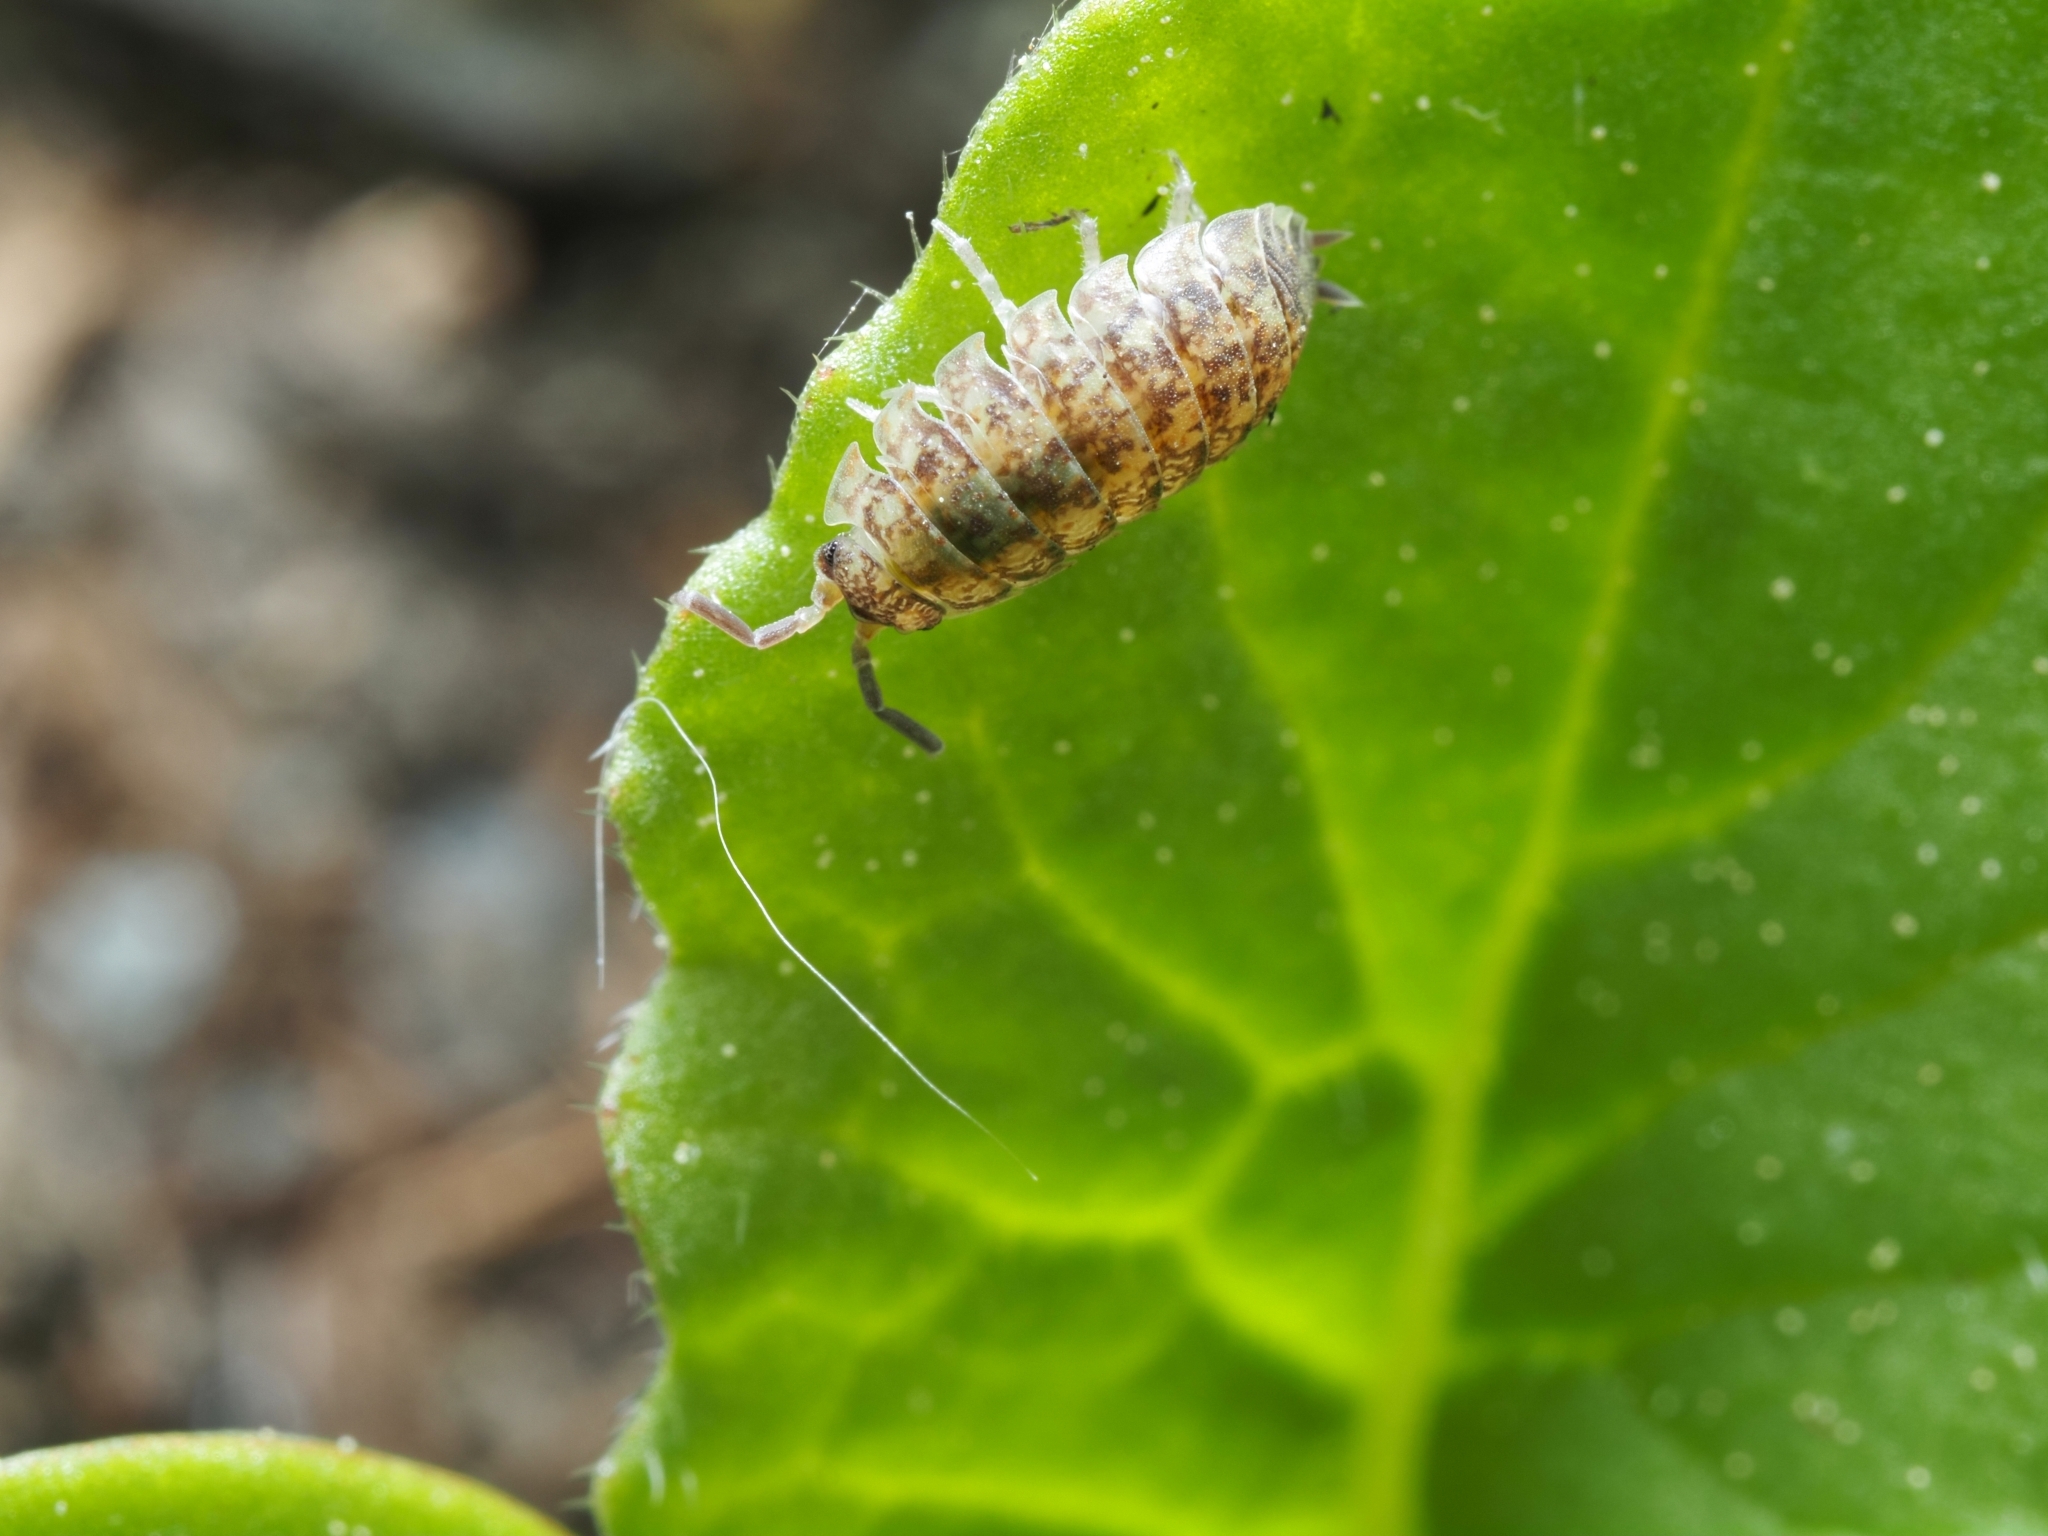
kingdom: Animalia
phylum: Arthropoda
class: Malacostraca
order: Isopoda
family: Porcellionidae
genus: Porcellio
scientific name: Porcellio scaber
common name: Common rough woodlouse
